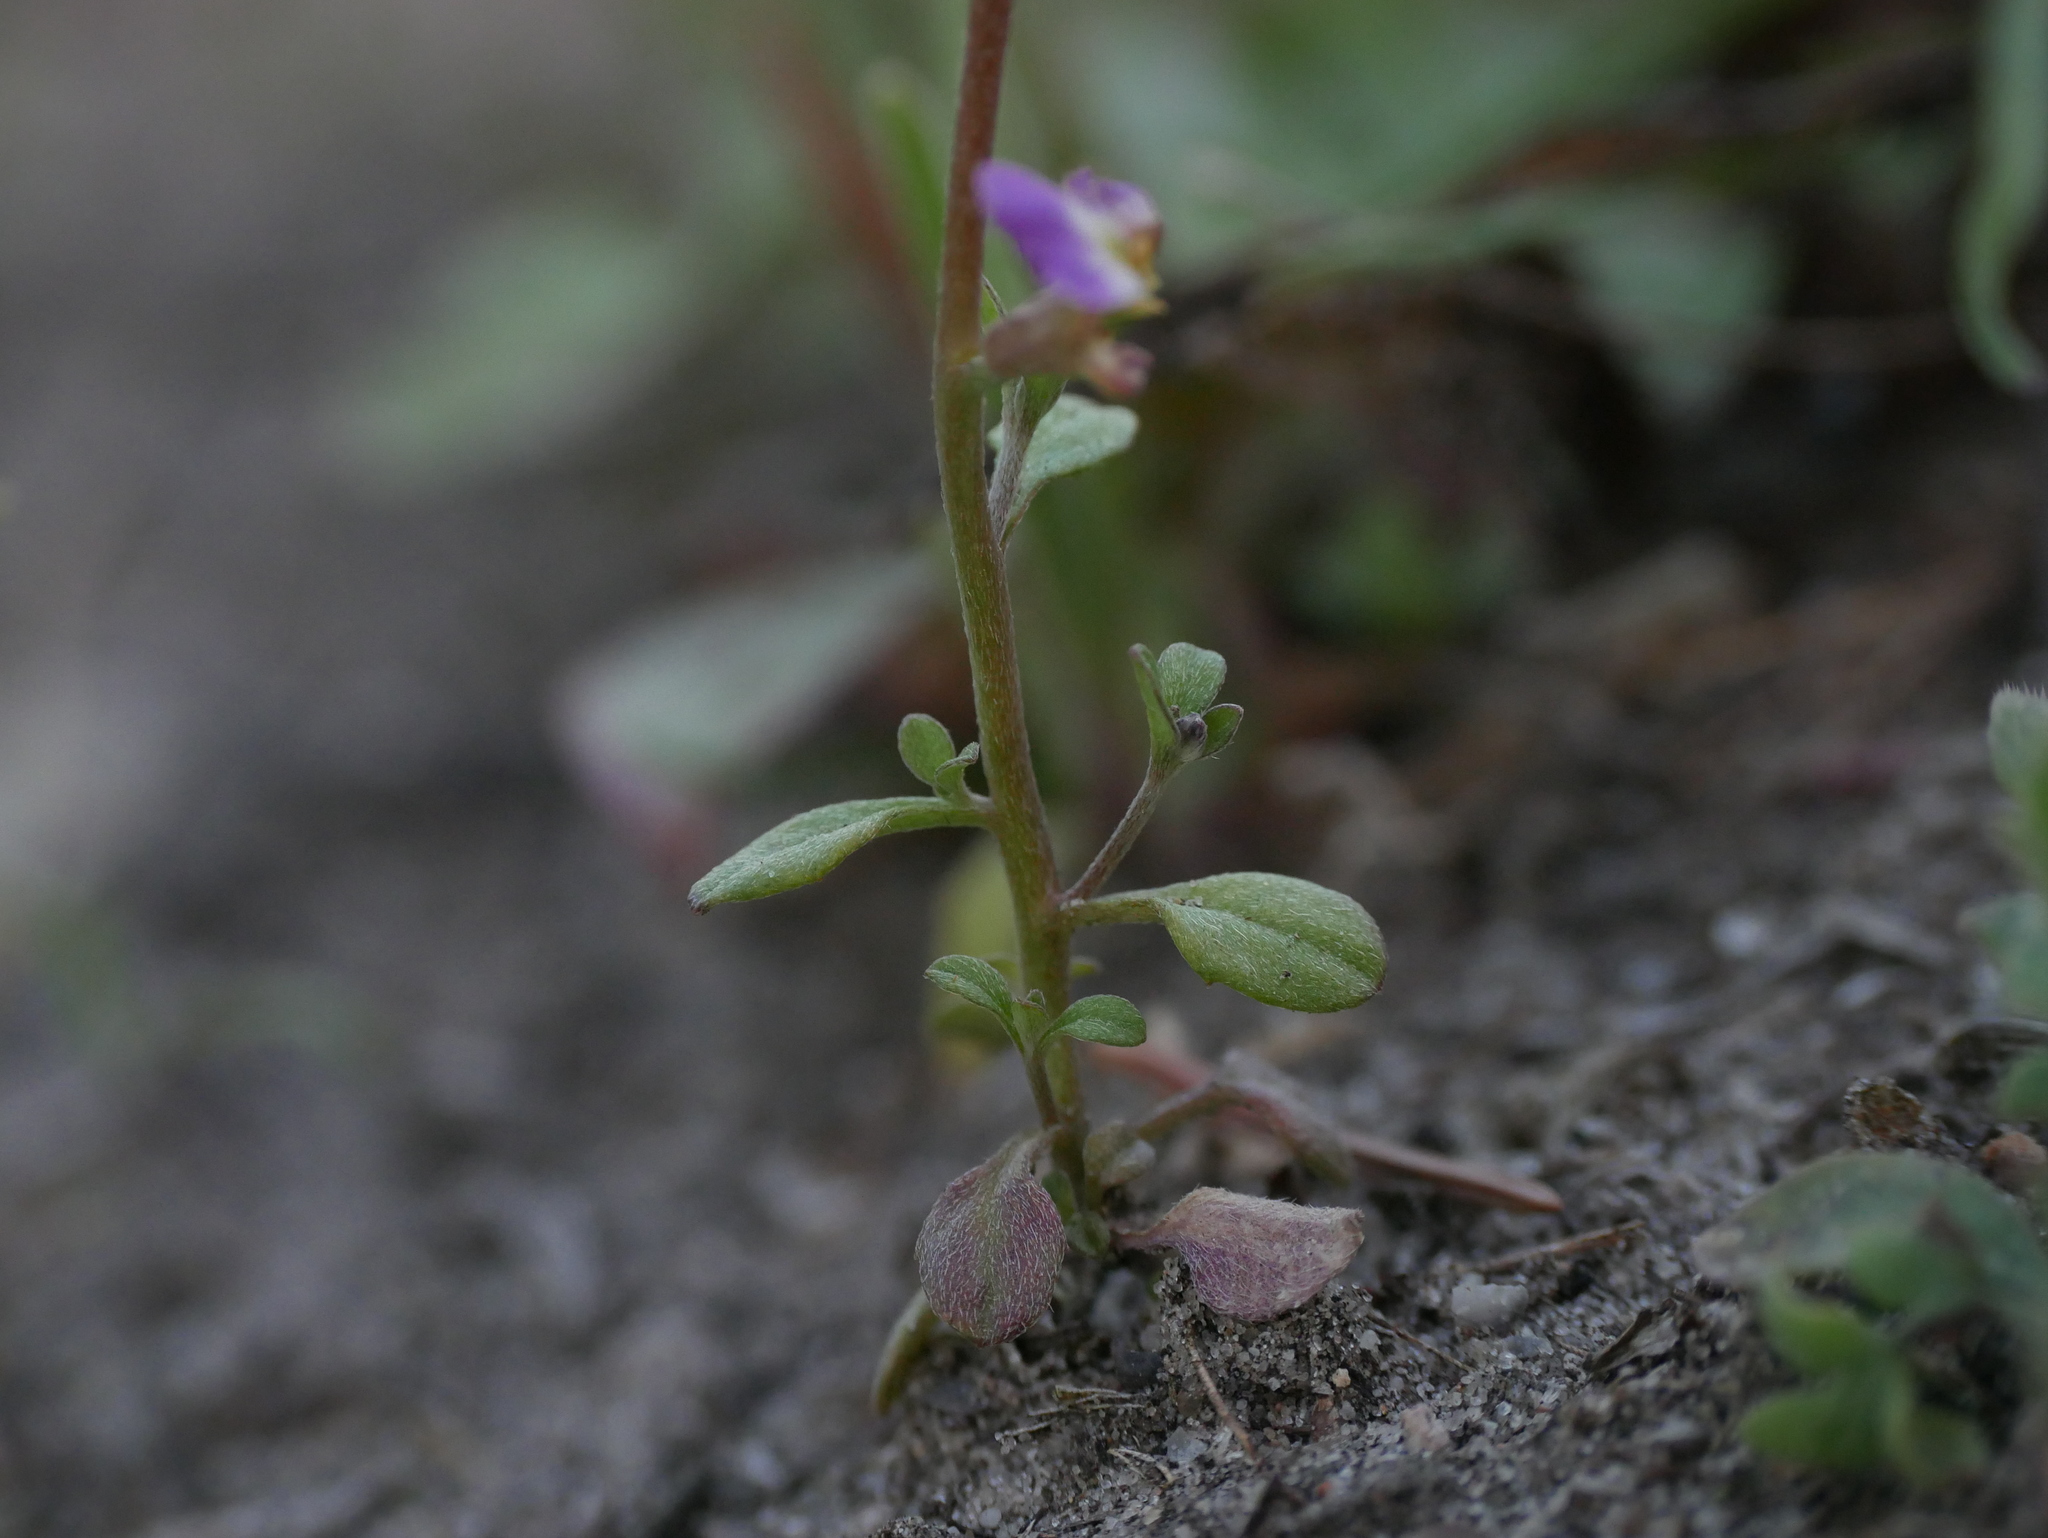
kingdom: Plantae
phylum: Tracheophyta
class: Magnoliopsida
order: Brassicales
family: Brassicaceae
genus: Malcolmia
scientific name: Malcolmia maritima
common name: Virginia stock
